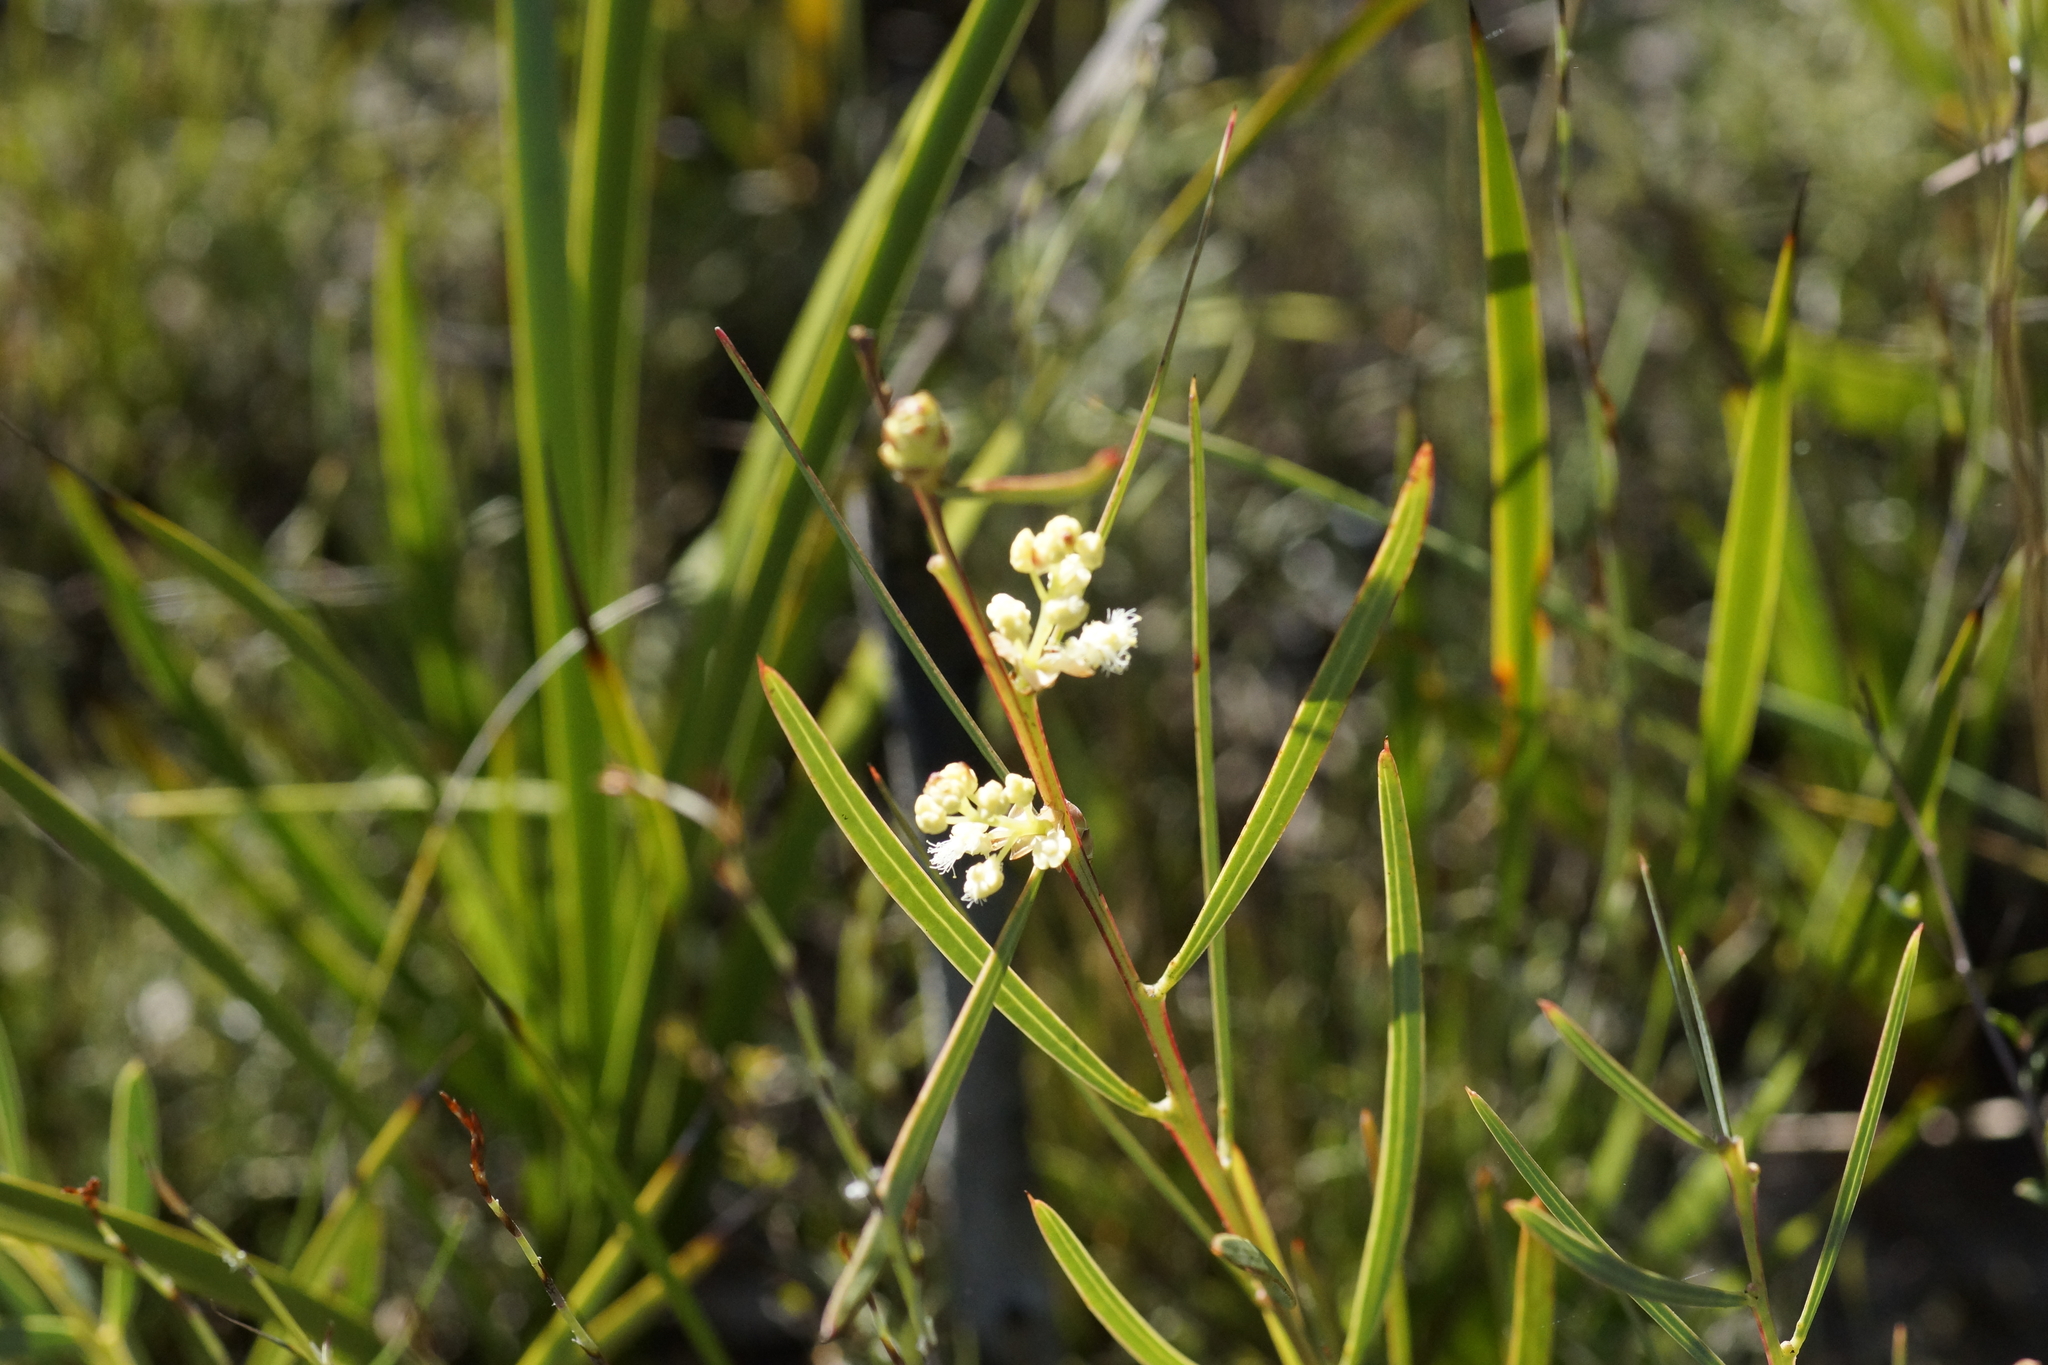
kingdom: Plantae
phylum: Tracheophyta
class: Magnoliopsida
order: Fabales
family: Fabaceae
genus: Acacia
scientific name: Acacia suaveolens
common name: Sweet acacia
